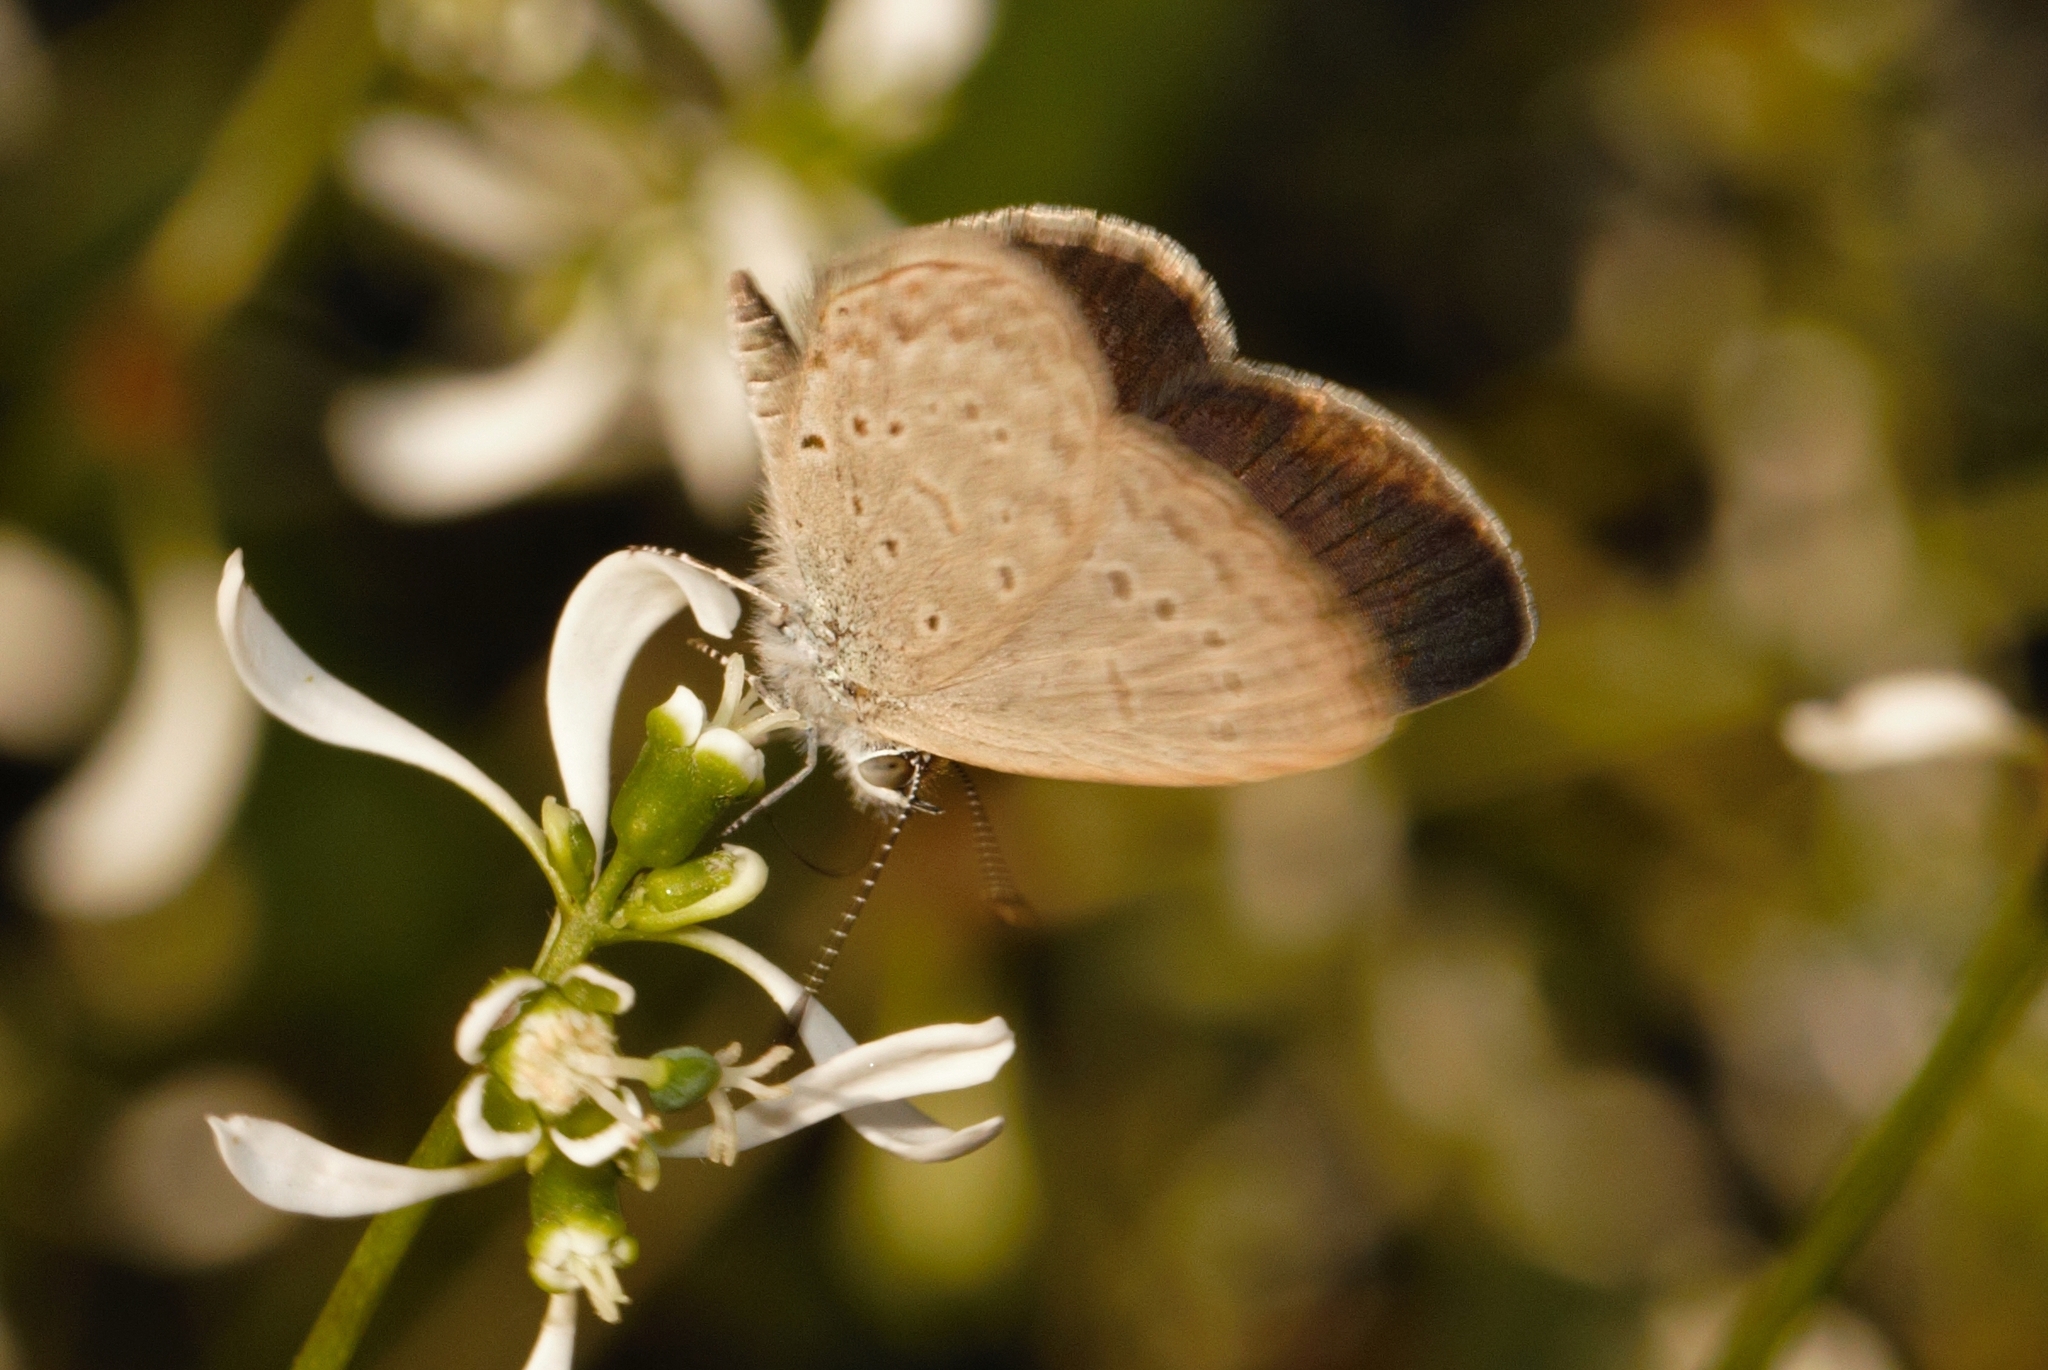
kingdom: Animalia
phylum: Arthropoda
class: Insecta
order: Lepidoptera
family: Lycaenidae
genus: Zizeeria
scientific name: Zizeeria knysna
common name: African grass blue
